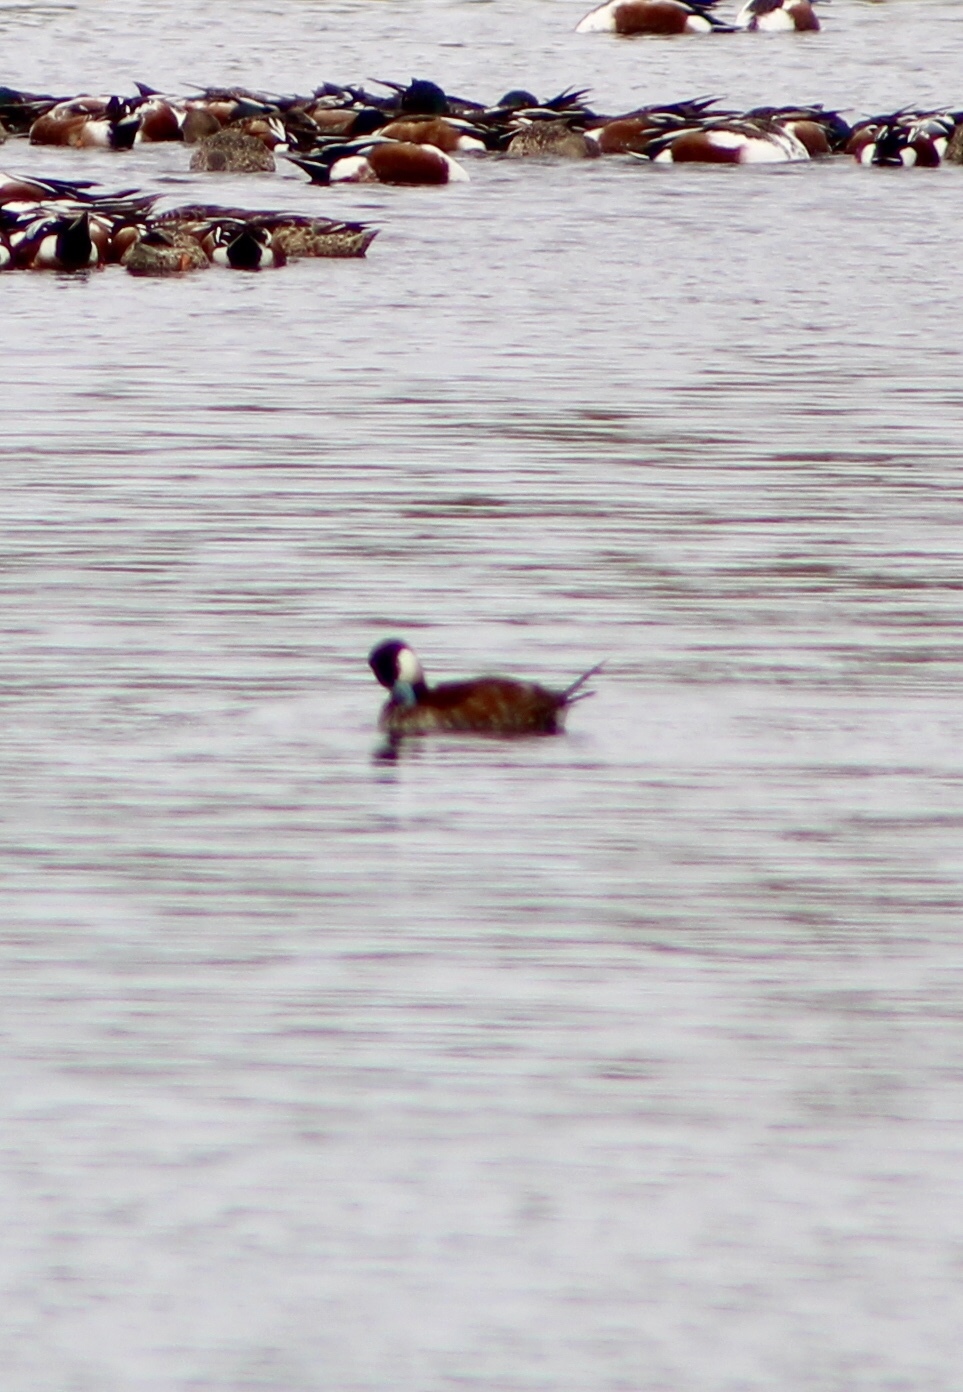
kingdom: Animalia
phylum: Chordata
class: Aves
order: Anseriformes
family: Anatidae
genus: Oxyura
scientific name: Oxyura jamaicensis
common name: Ruddy duck
